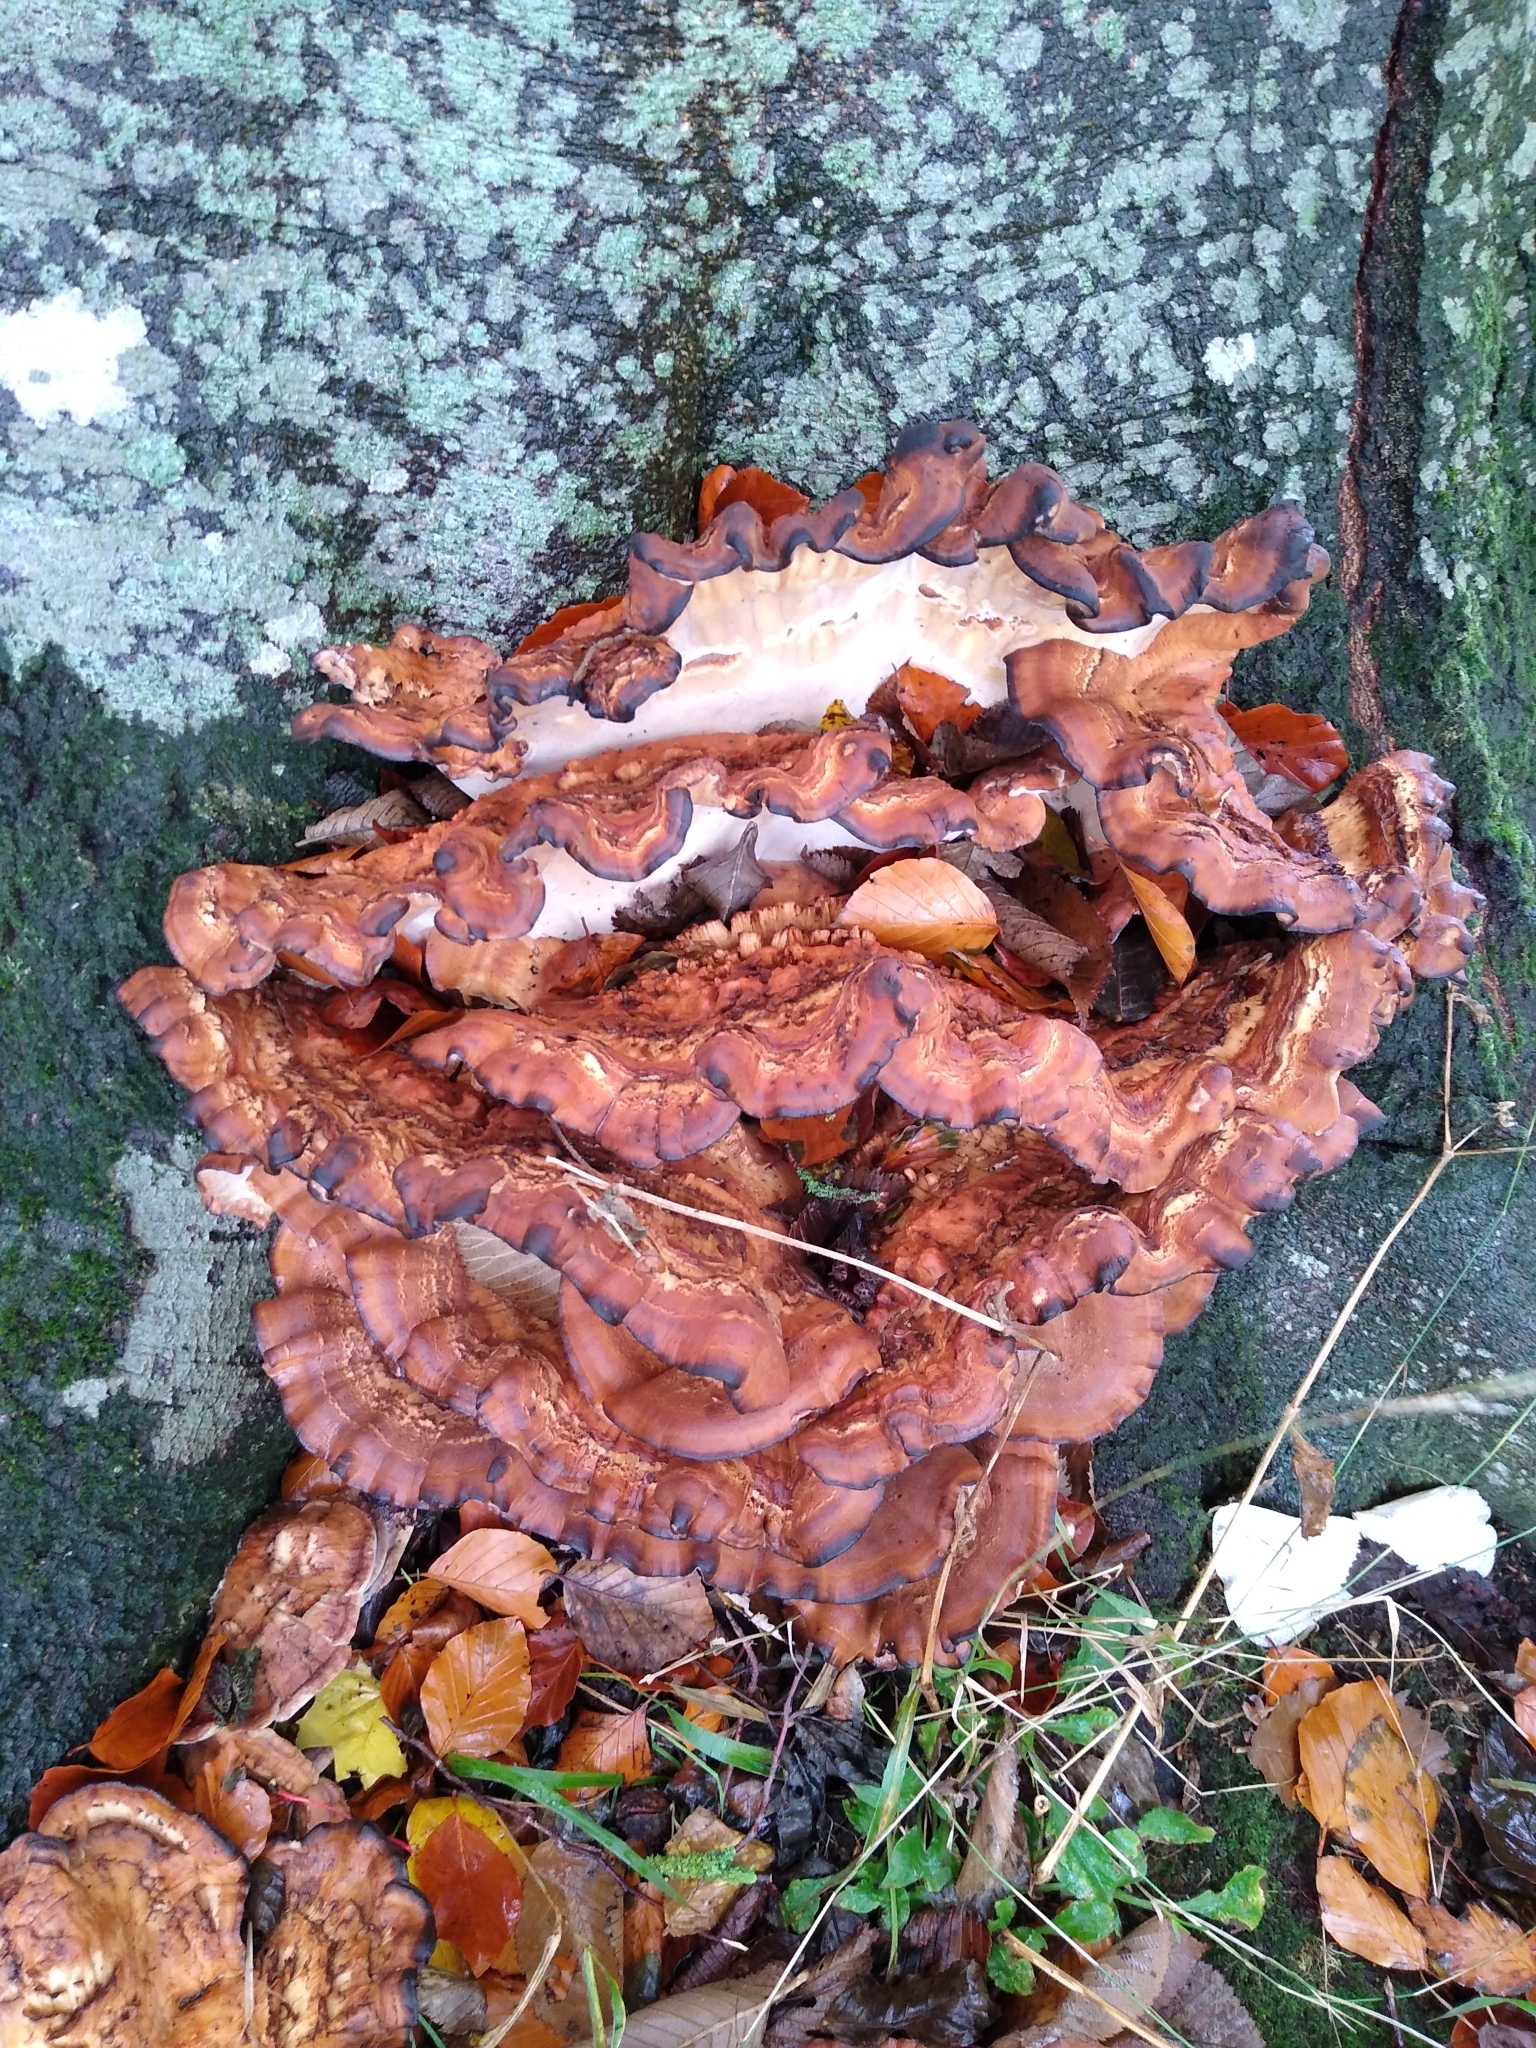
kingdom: Fungi
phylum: Basidiomycota
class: Agaricomycetes
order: Polyporales
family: Meripilaceae
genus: Meripilus
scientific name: Meripilus giganteus
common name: Giant polypore
